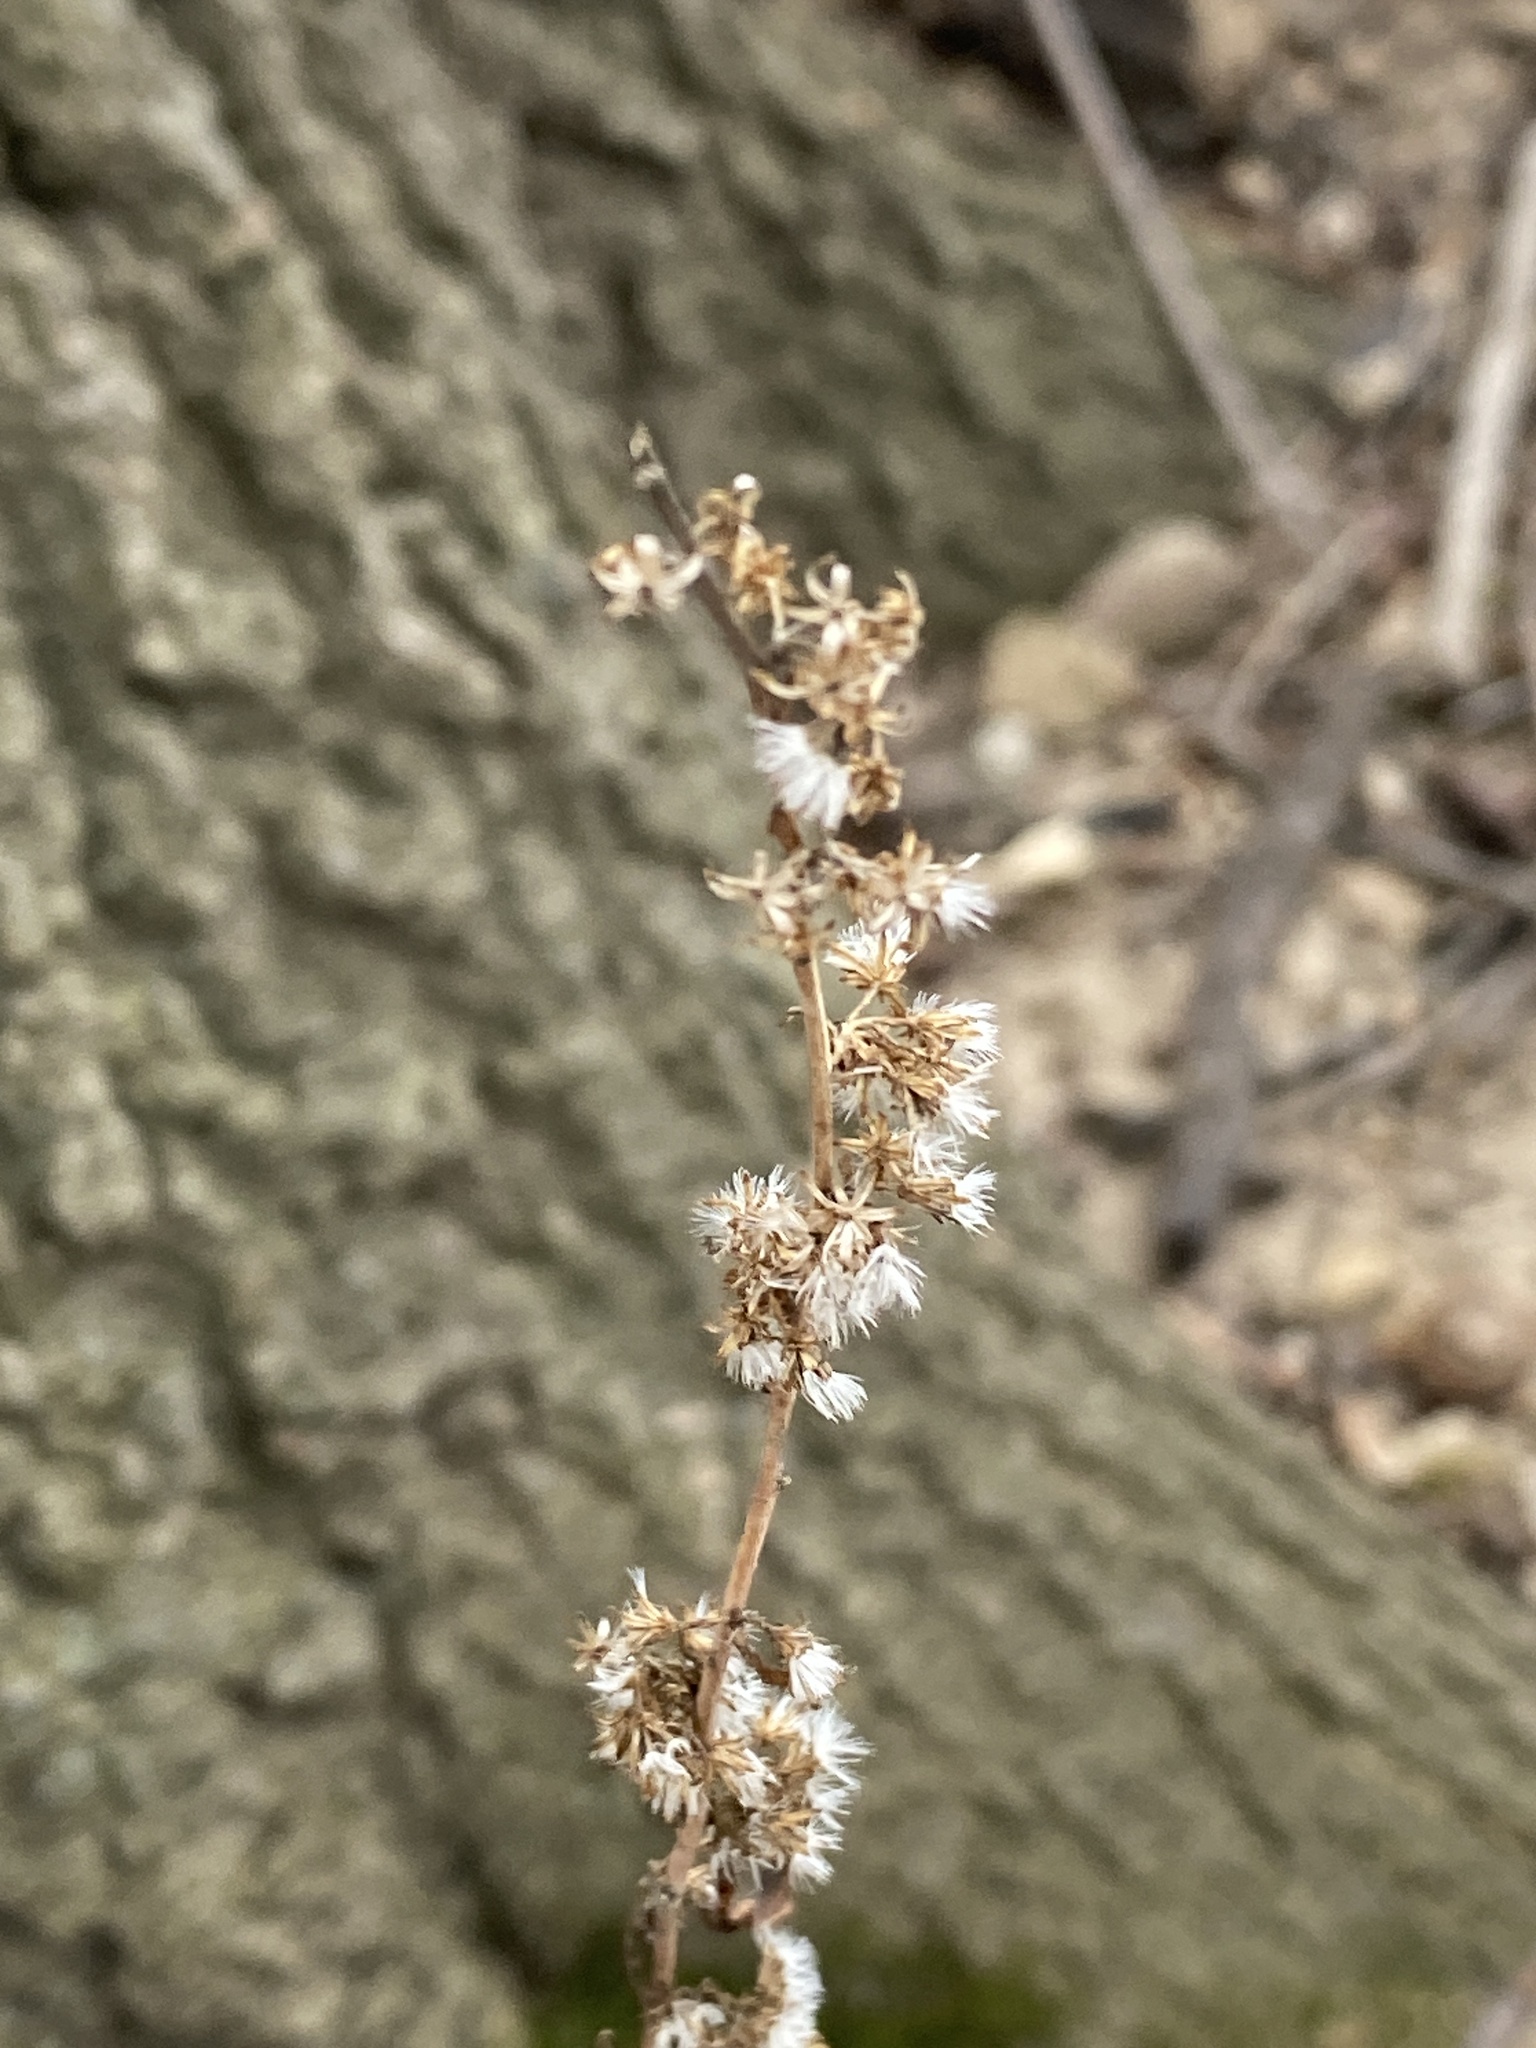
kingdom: Plantae
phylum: Tracheophyta
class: Magnoliopsida
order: Asterales
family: Asteraceae
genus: Solidago
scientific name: Solidago caesia
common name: Woodland goldenrod
